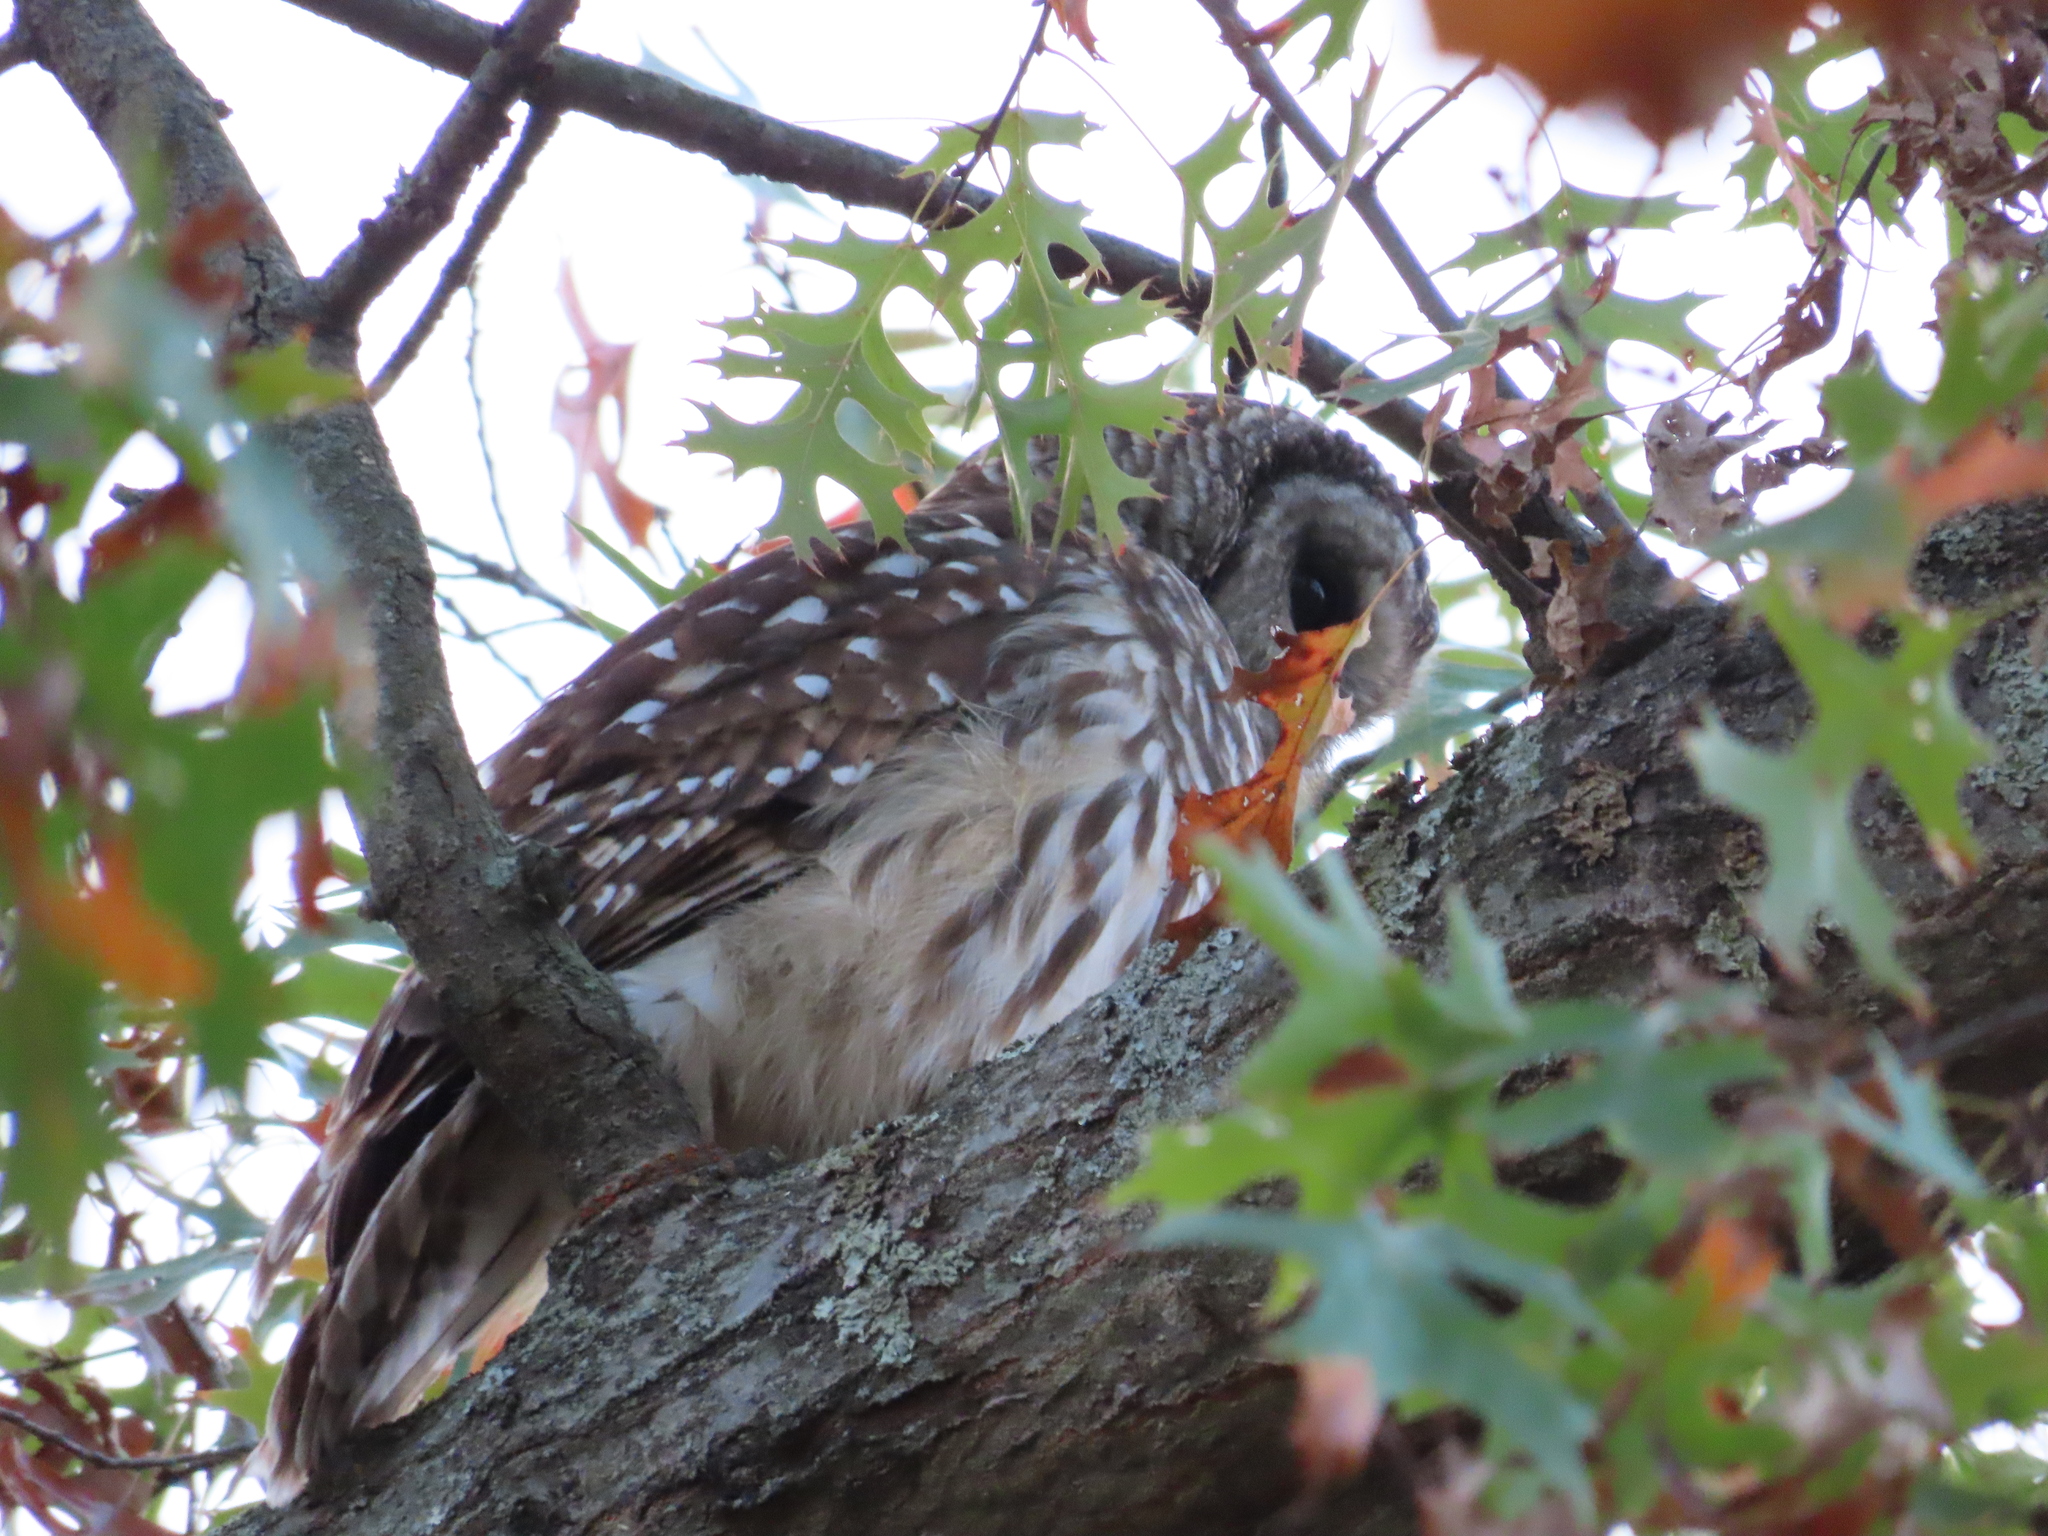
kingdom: Animalia
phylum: Chordata
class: Aves
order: Strigiformes
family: Strigidae
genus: Strix
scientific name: Strix varia
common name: Barred owl
